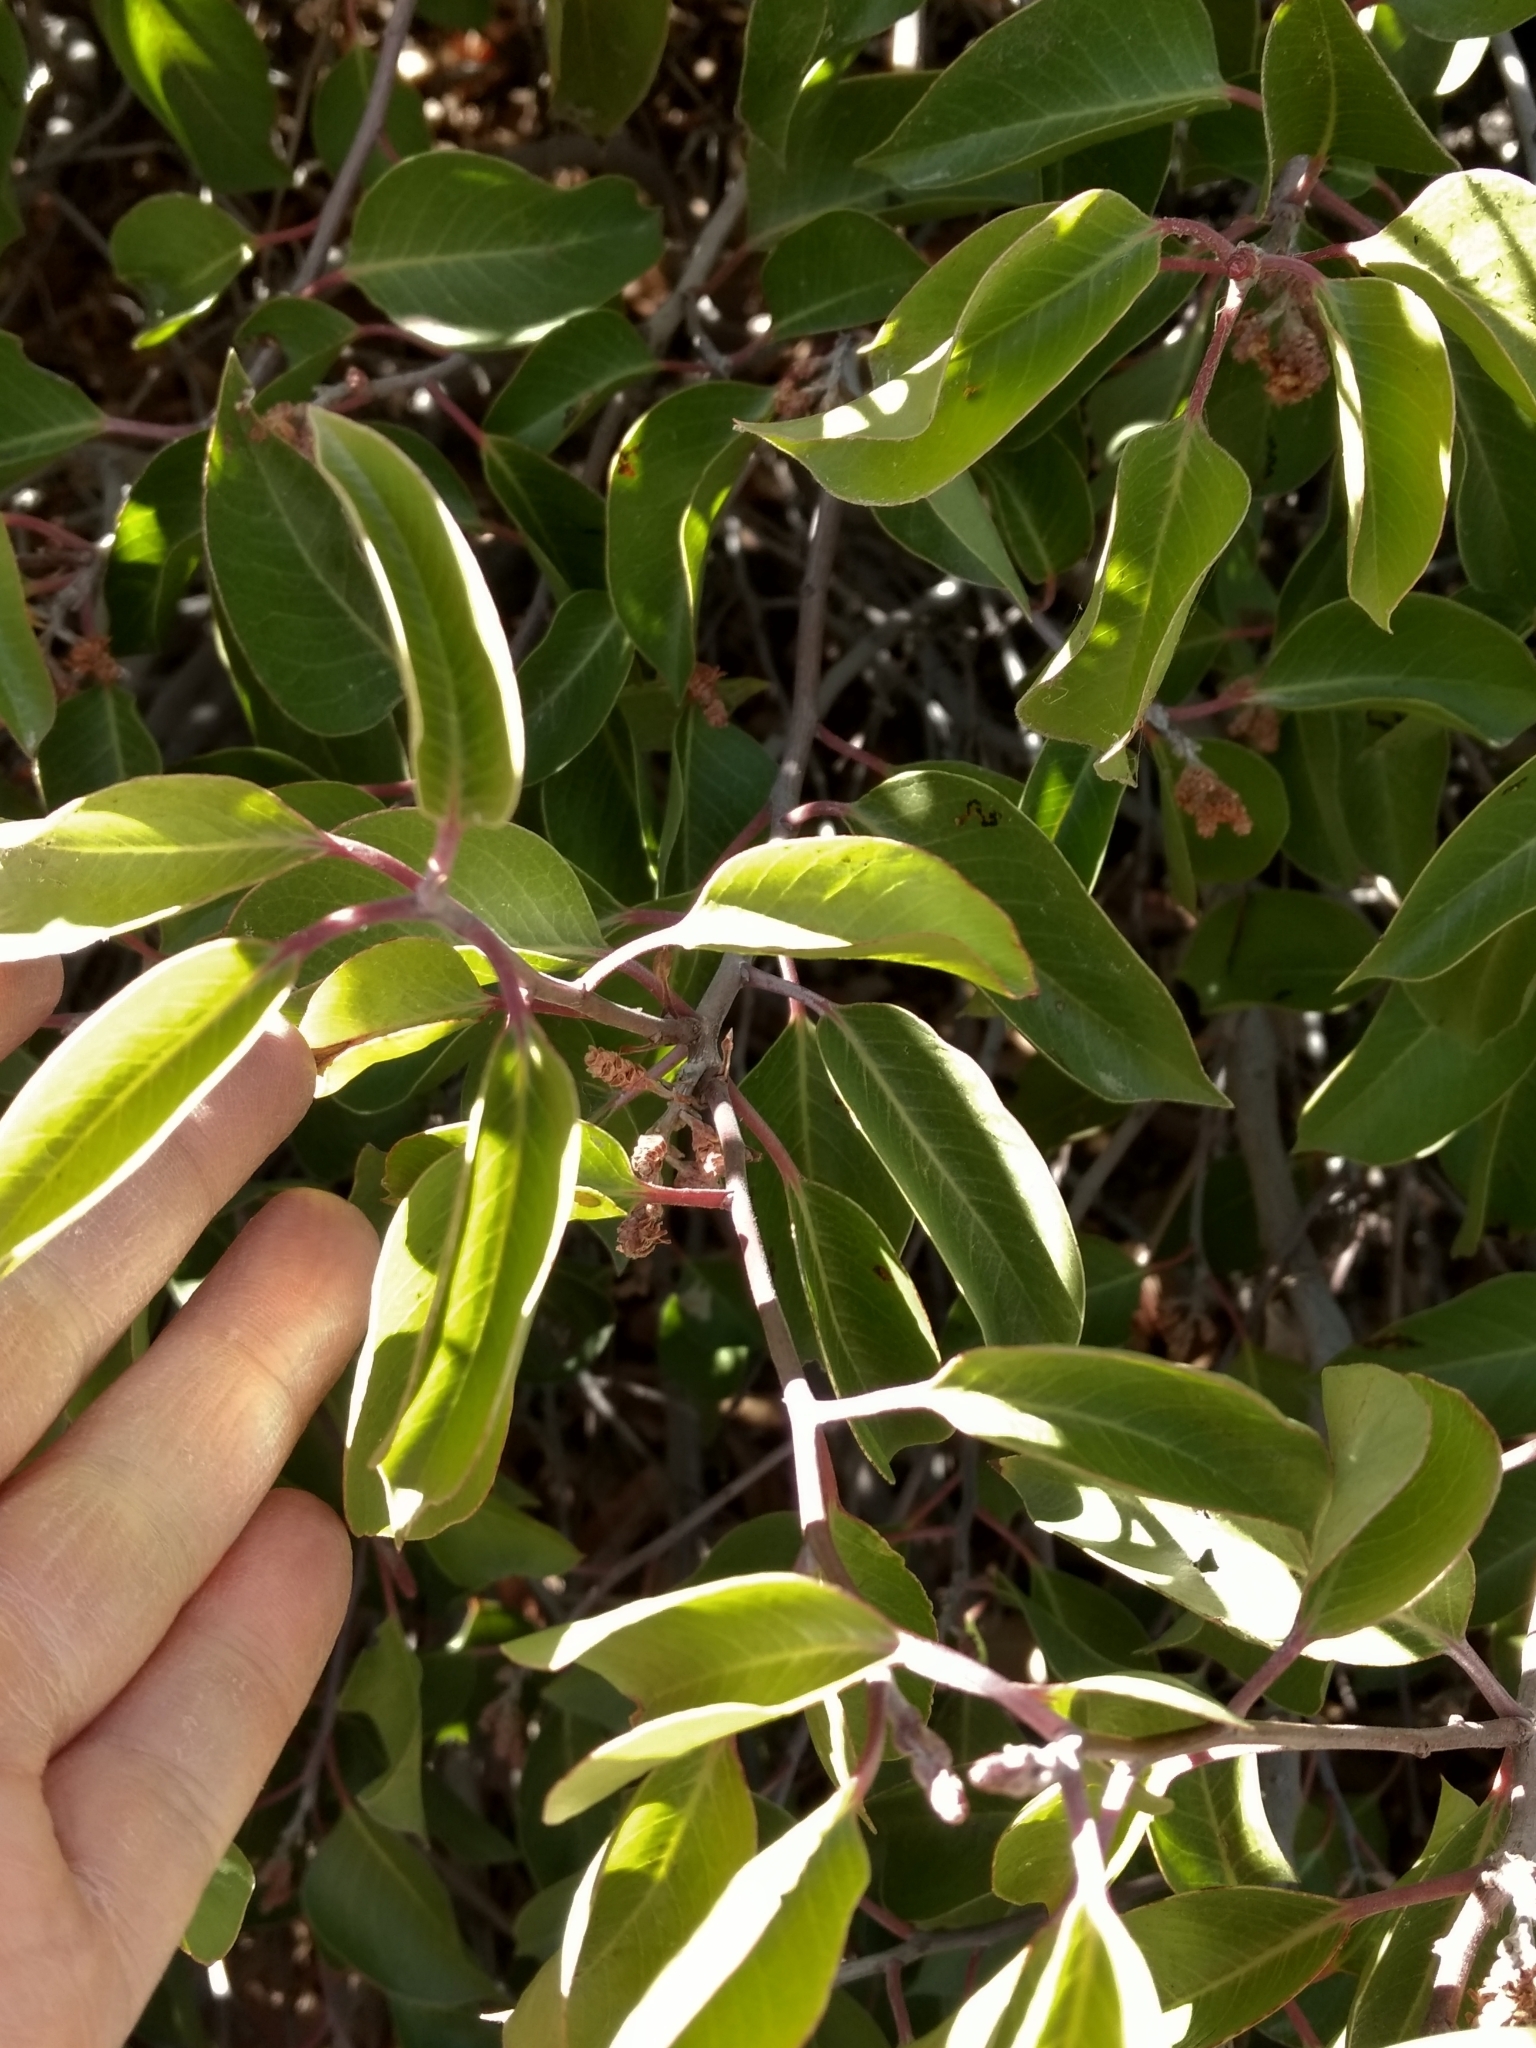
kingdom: Plantae
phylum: Tracheophyta
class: Magnoliopsida
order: Sapindales
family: Anacardiaceae
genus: Rhus
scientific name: Rhus ovata
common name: Sugar sumac
